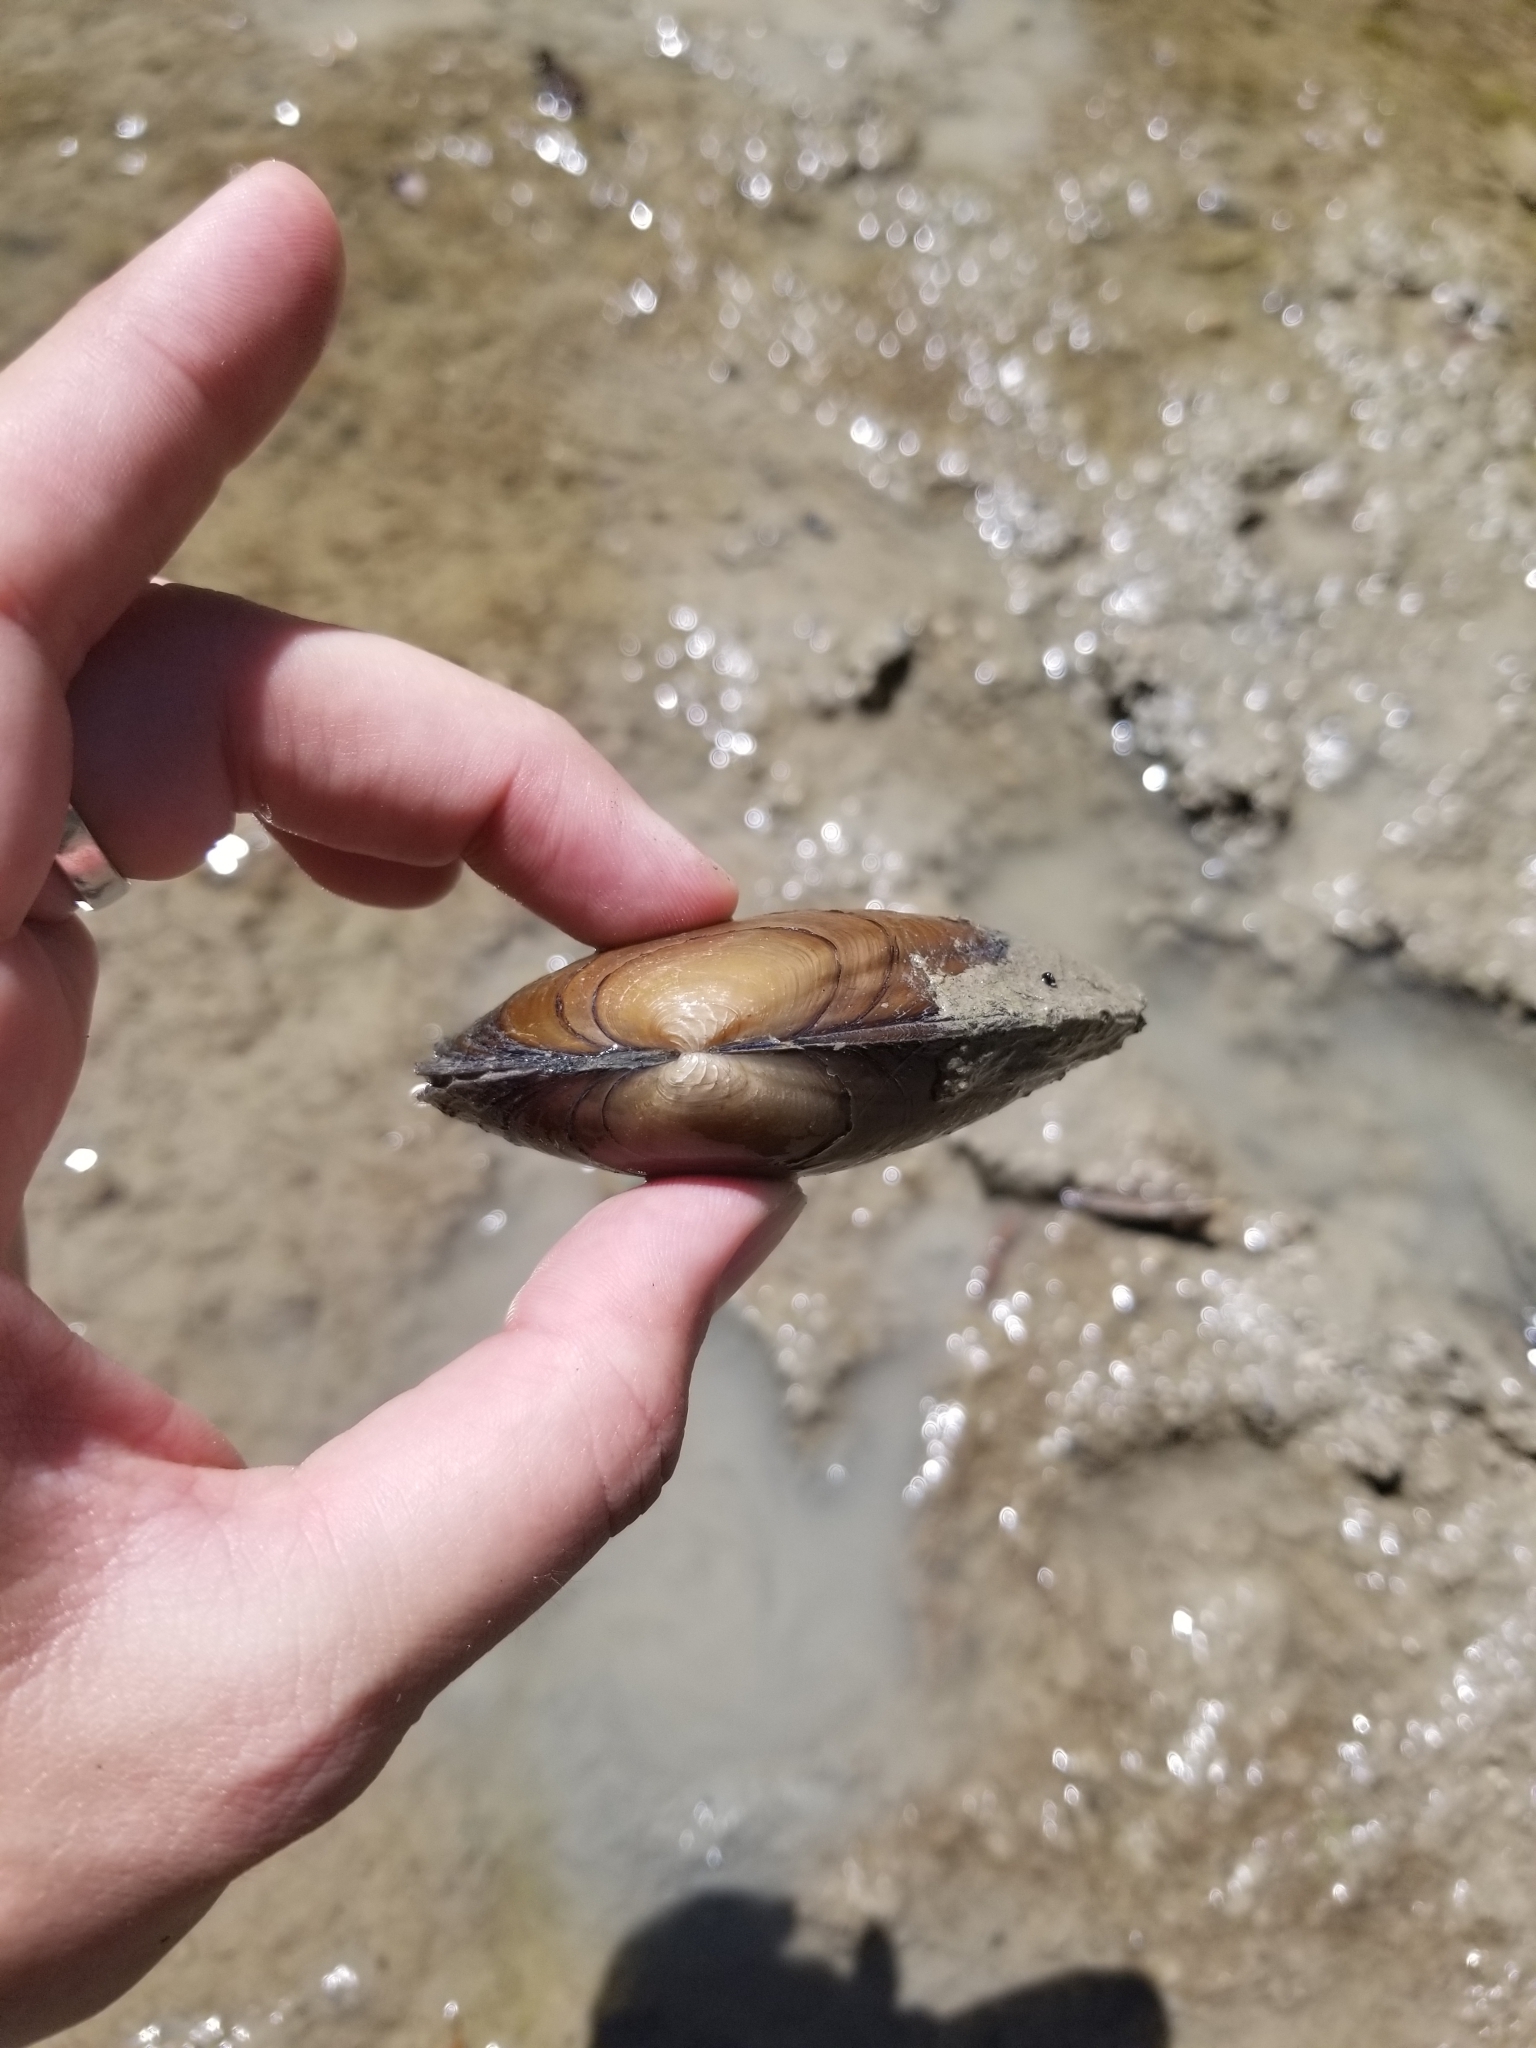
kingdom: Animalia
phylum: Mollusca
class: Bivalvia
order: Unionida
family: Unionidae
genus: Uniomerus
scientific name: Uniomerus tetralasmus
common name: Pondhorn
